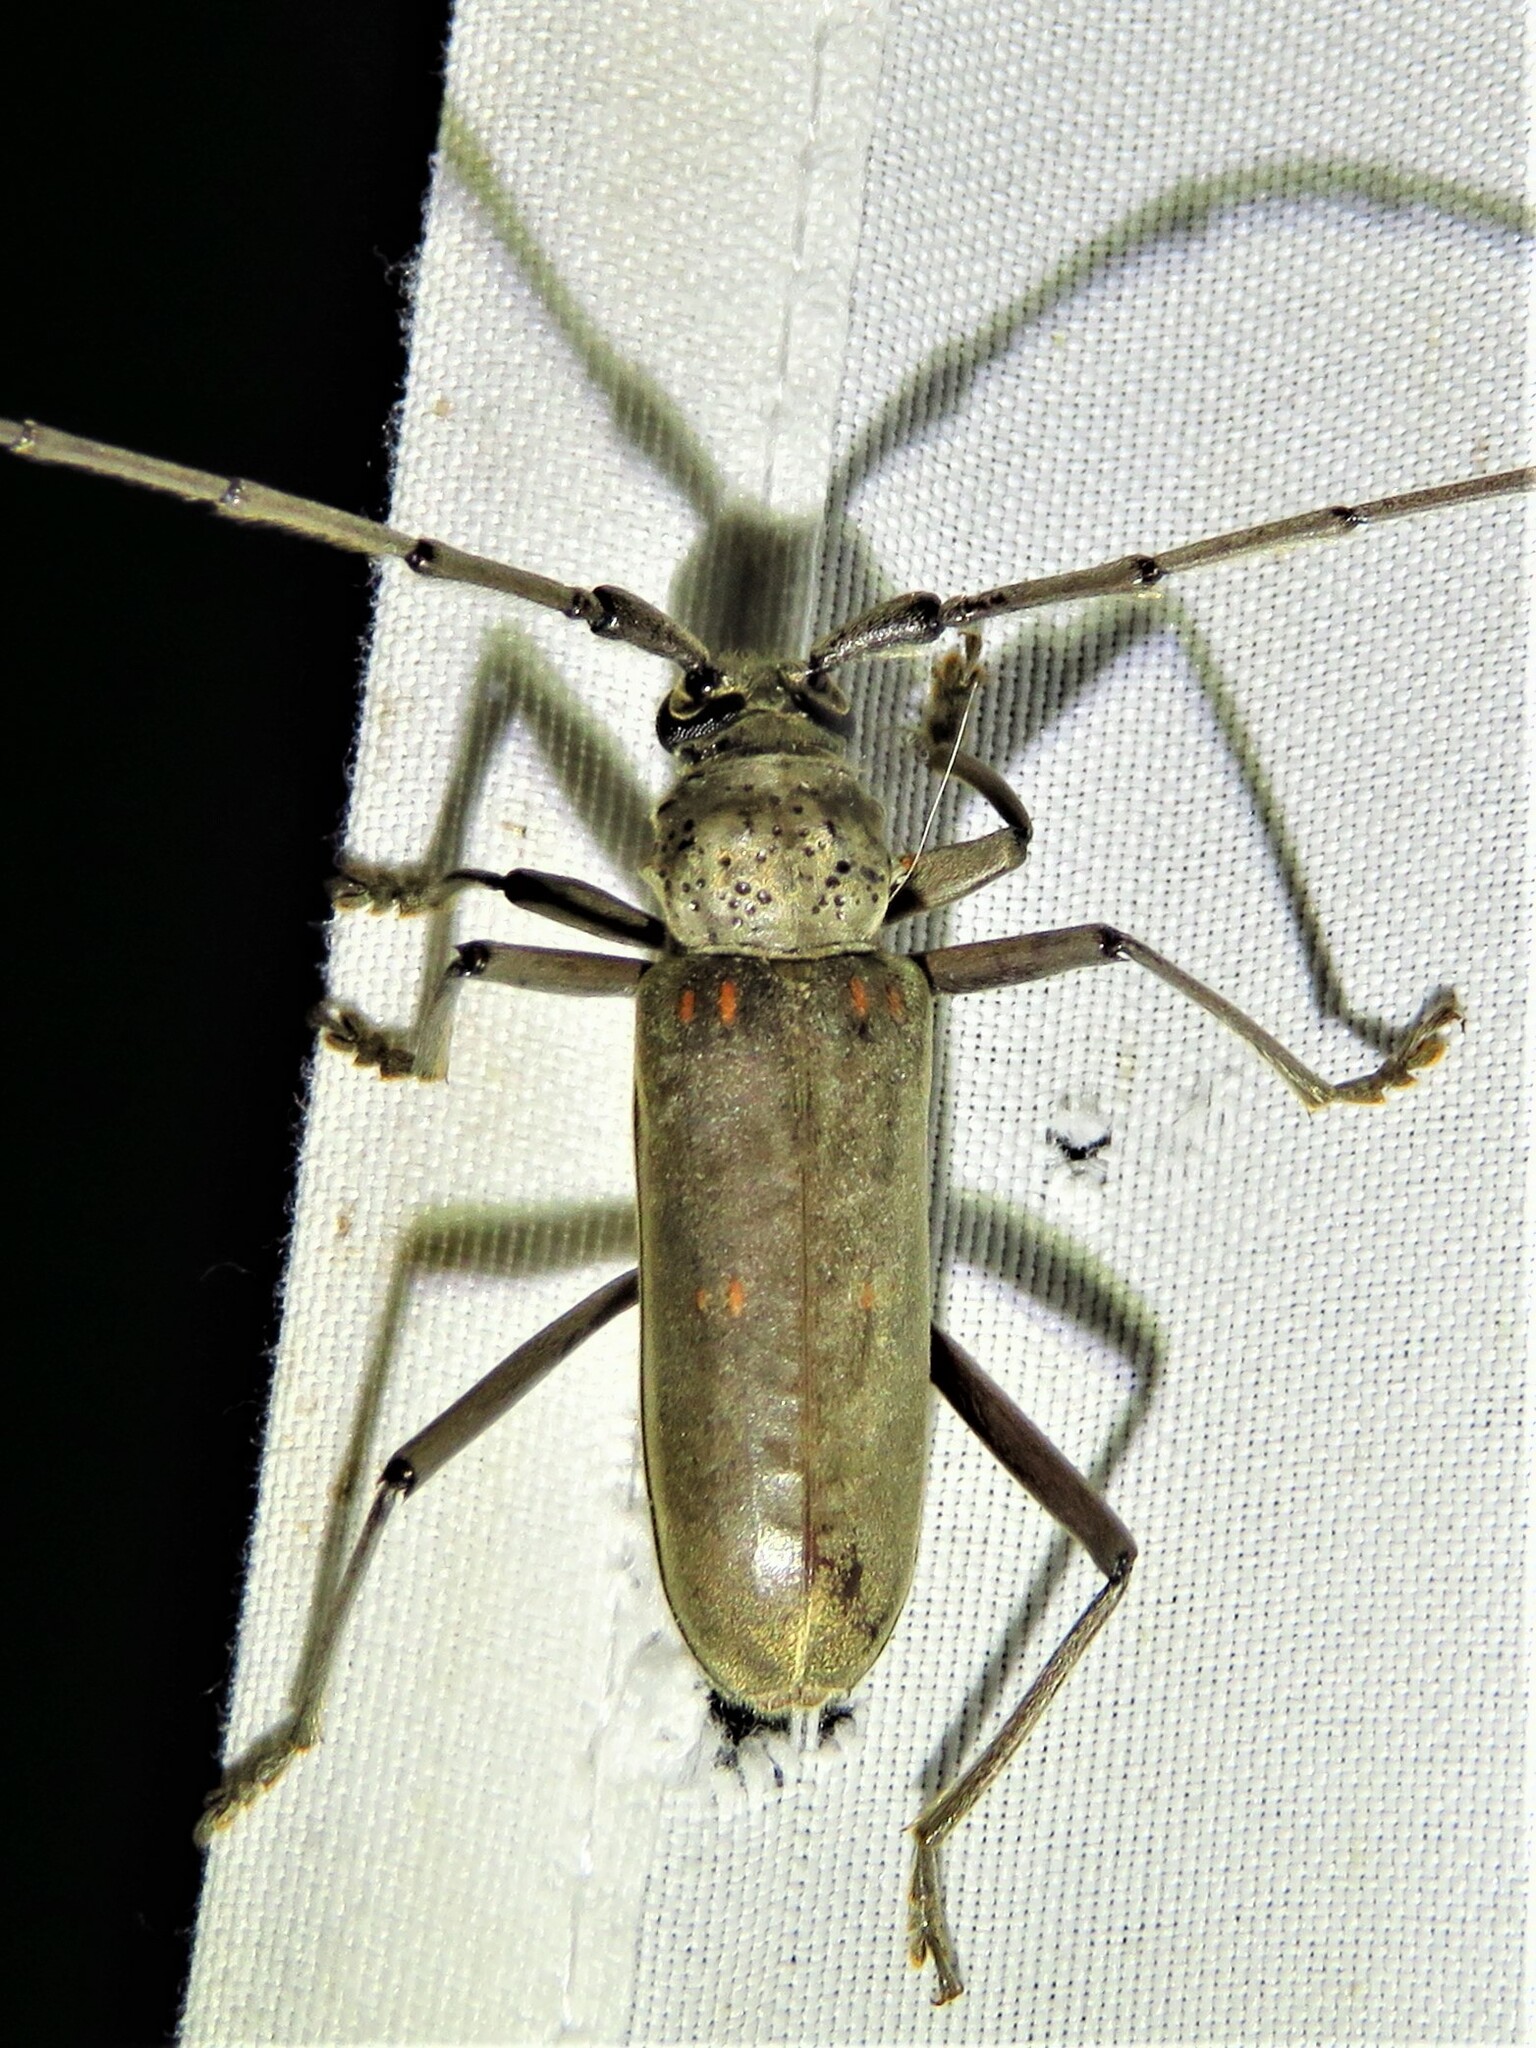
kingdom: Animalia
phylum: Arthropoda
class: Insecta
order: Coleoptera
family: Cerambycidae
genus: Susuacanga
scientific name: Susuacanga stigmatica
